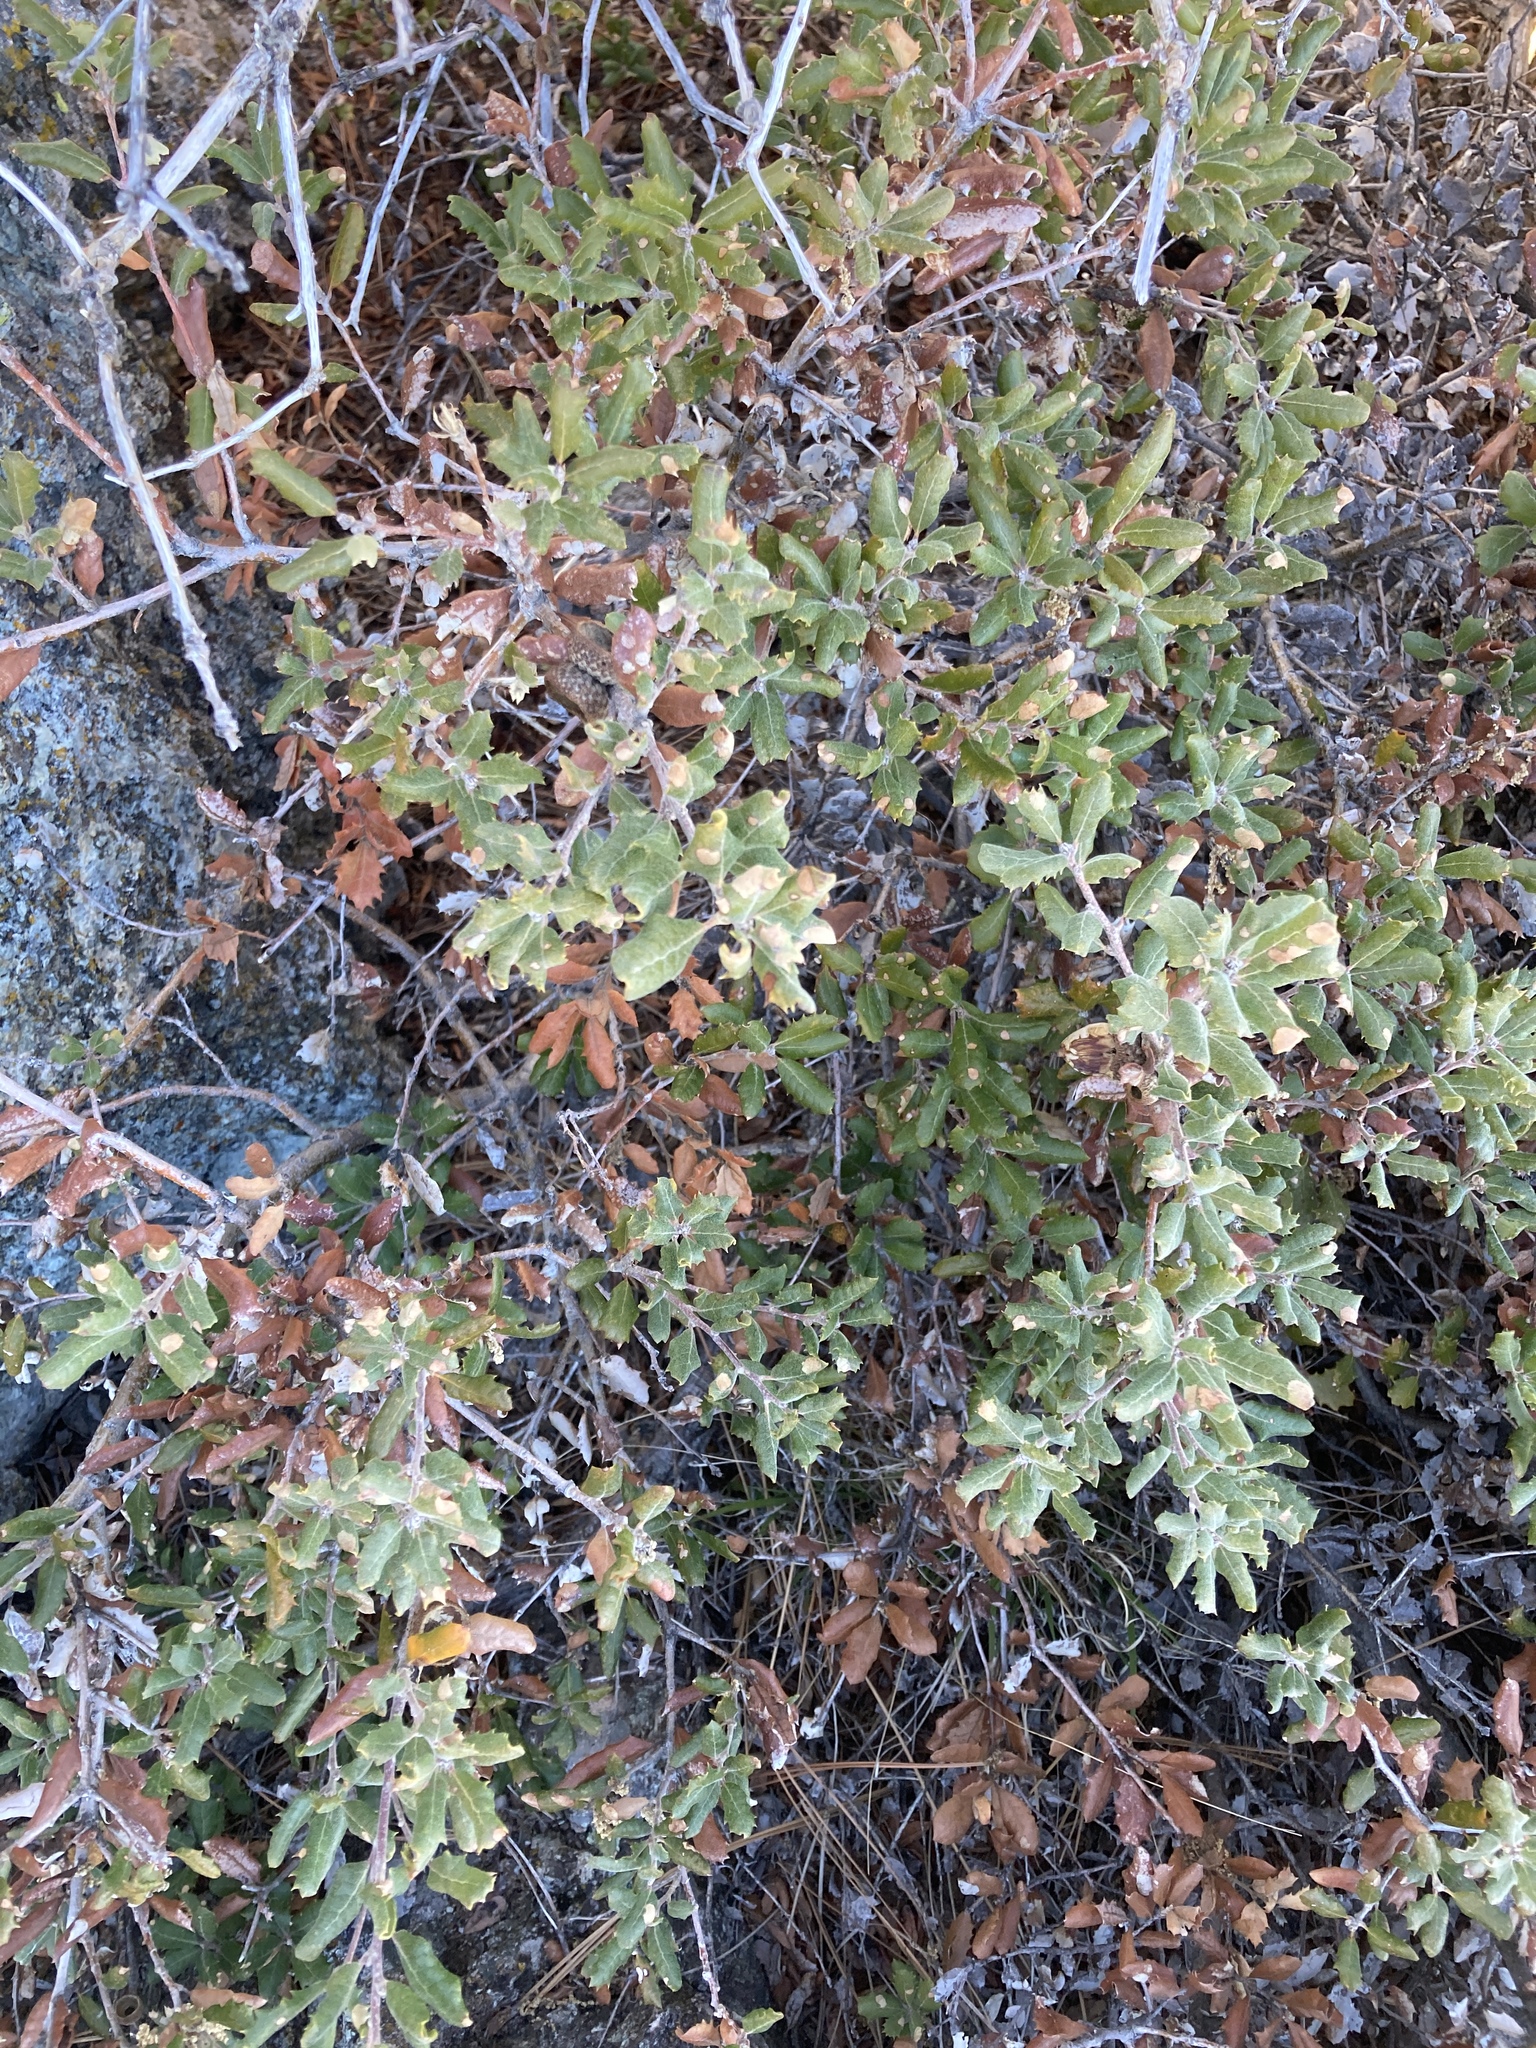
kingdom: Plantae
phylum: Tracheophyta
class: Magnoliopsida
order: Fagales
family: Fagaceae
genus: Quercus
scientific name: Quercus durata
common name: Leather oak
